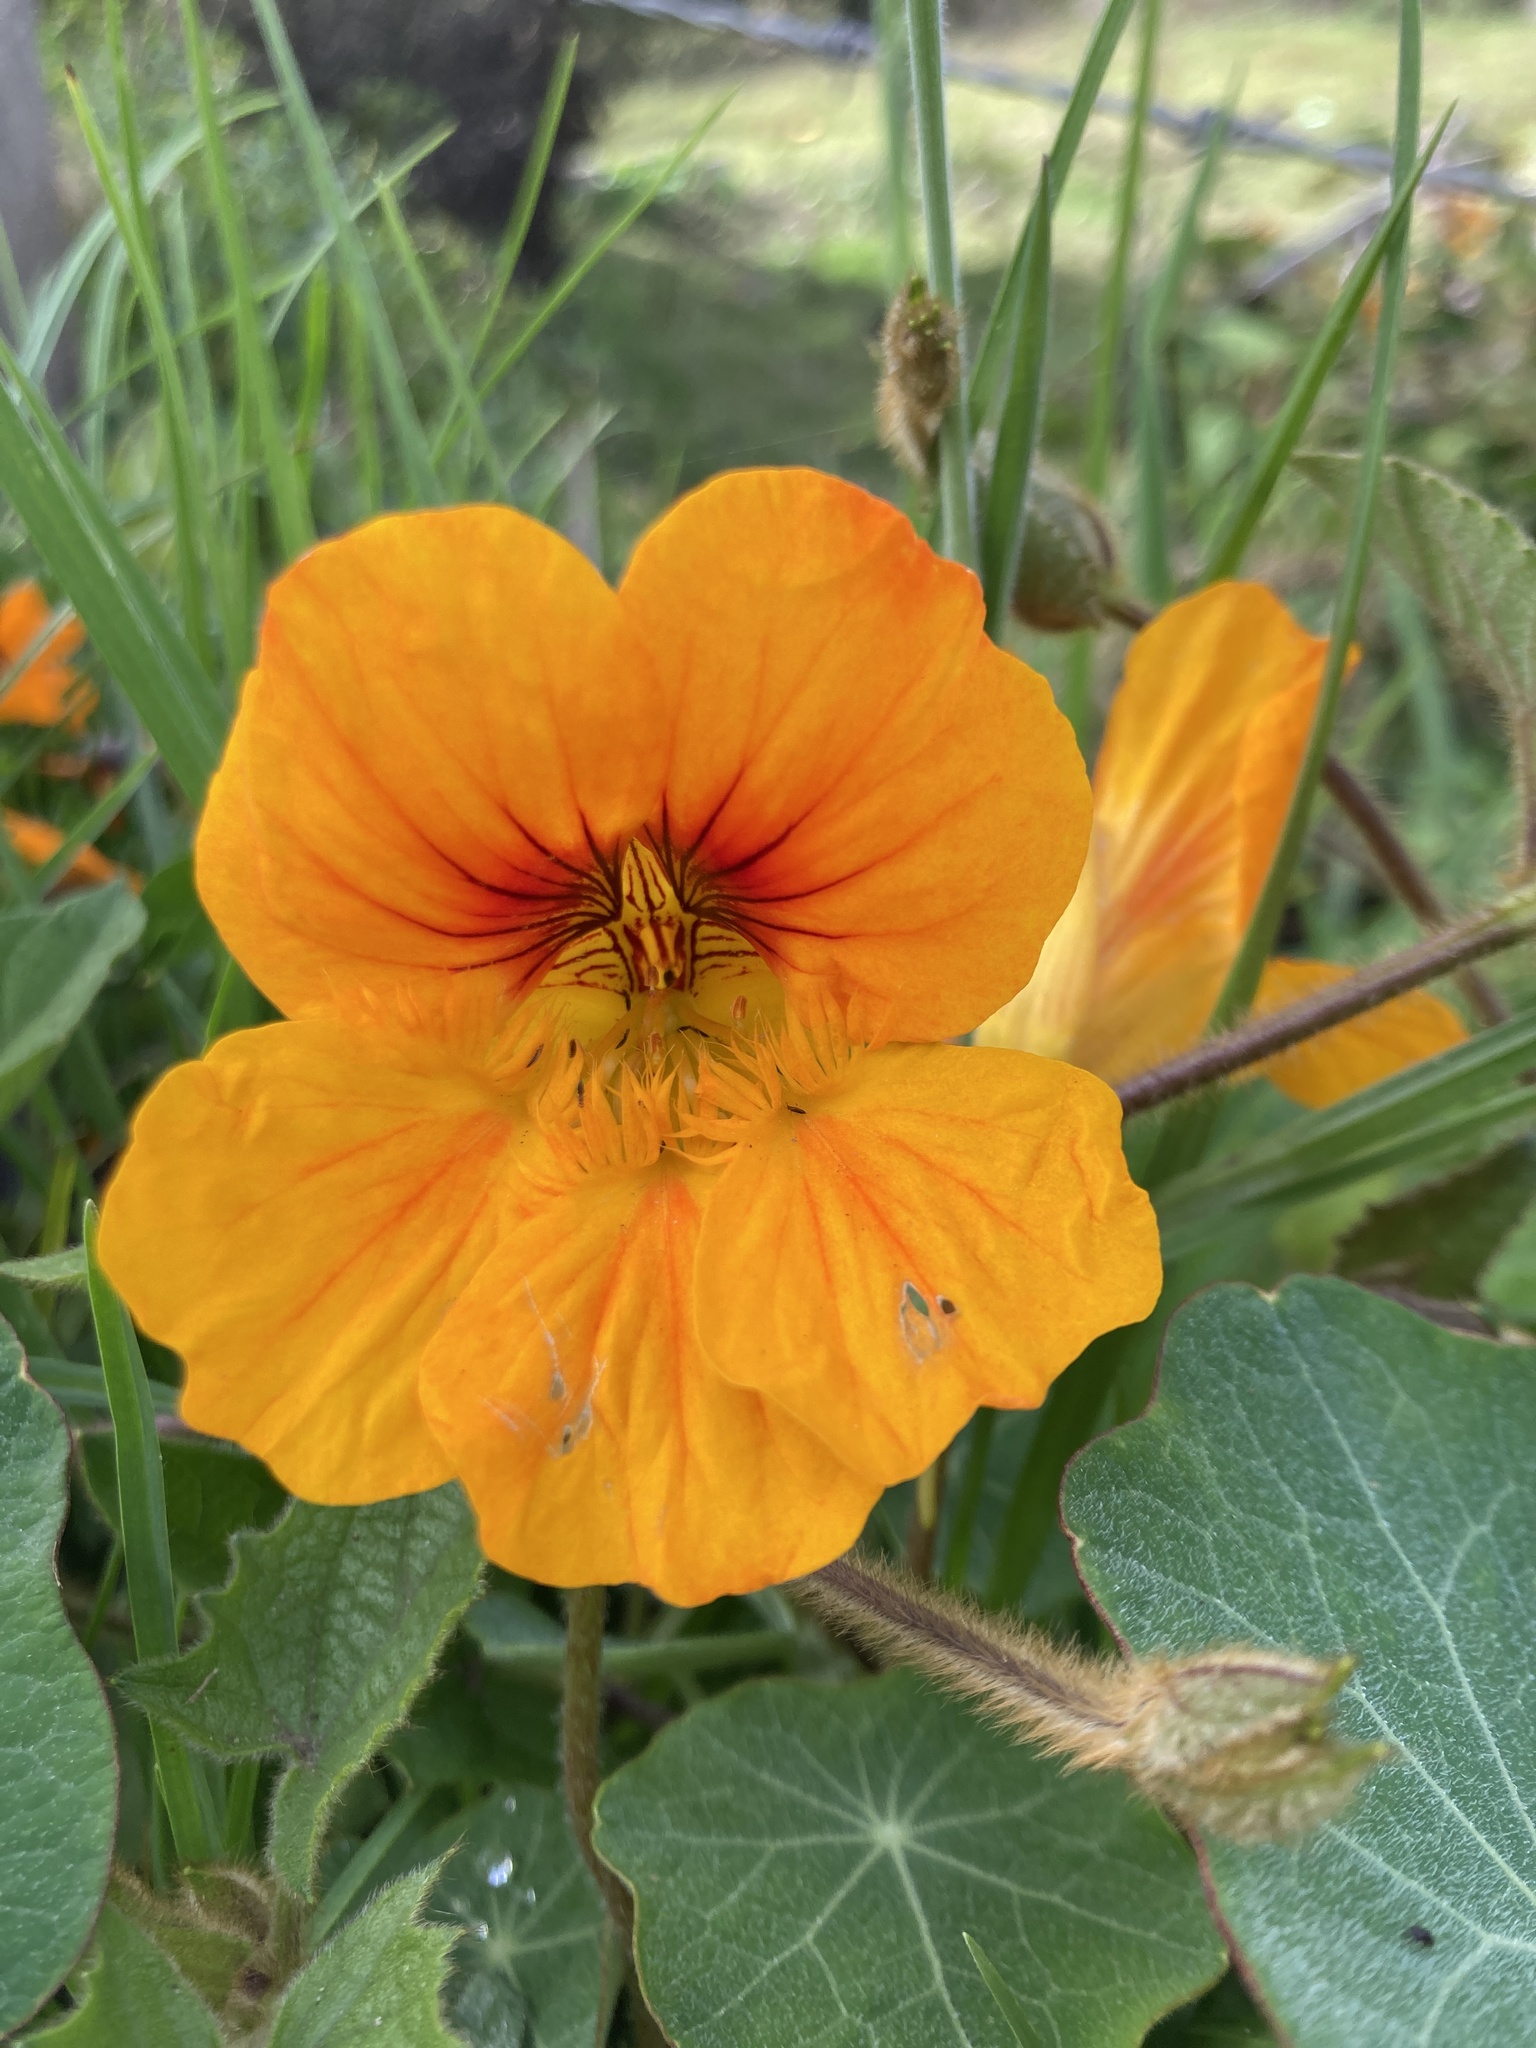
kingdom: Plantae
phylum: Tracheophyta
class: Magnoliopsida
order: Brassicales
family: Tropaeolaceae
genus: Tropaeolum
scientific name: Tropaeolum majus
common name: Nasturtium
